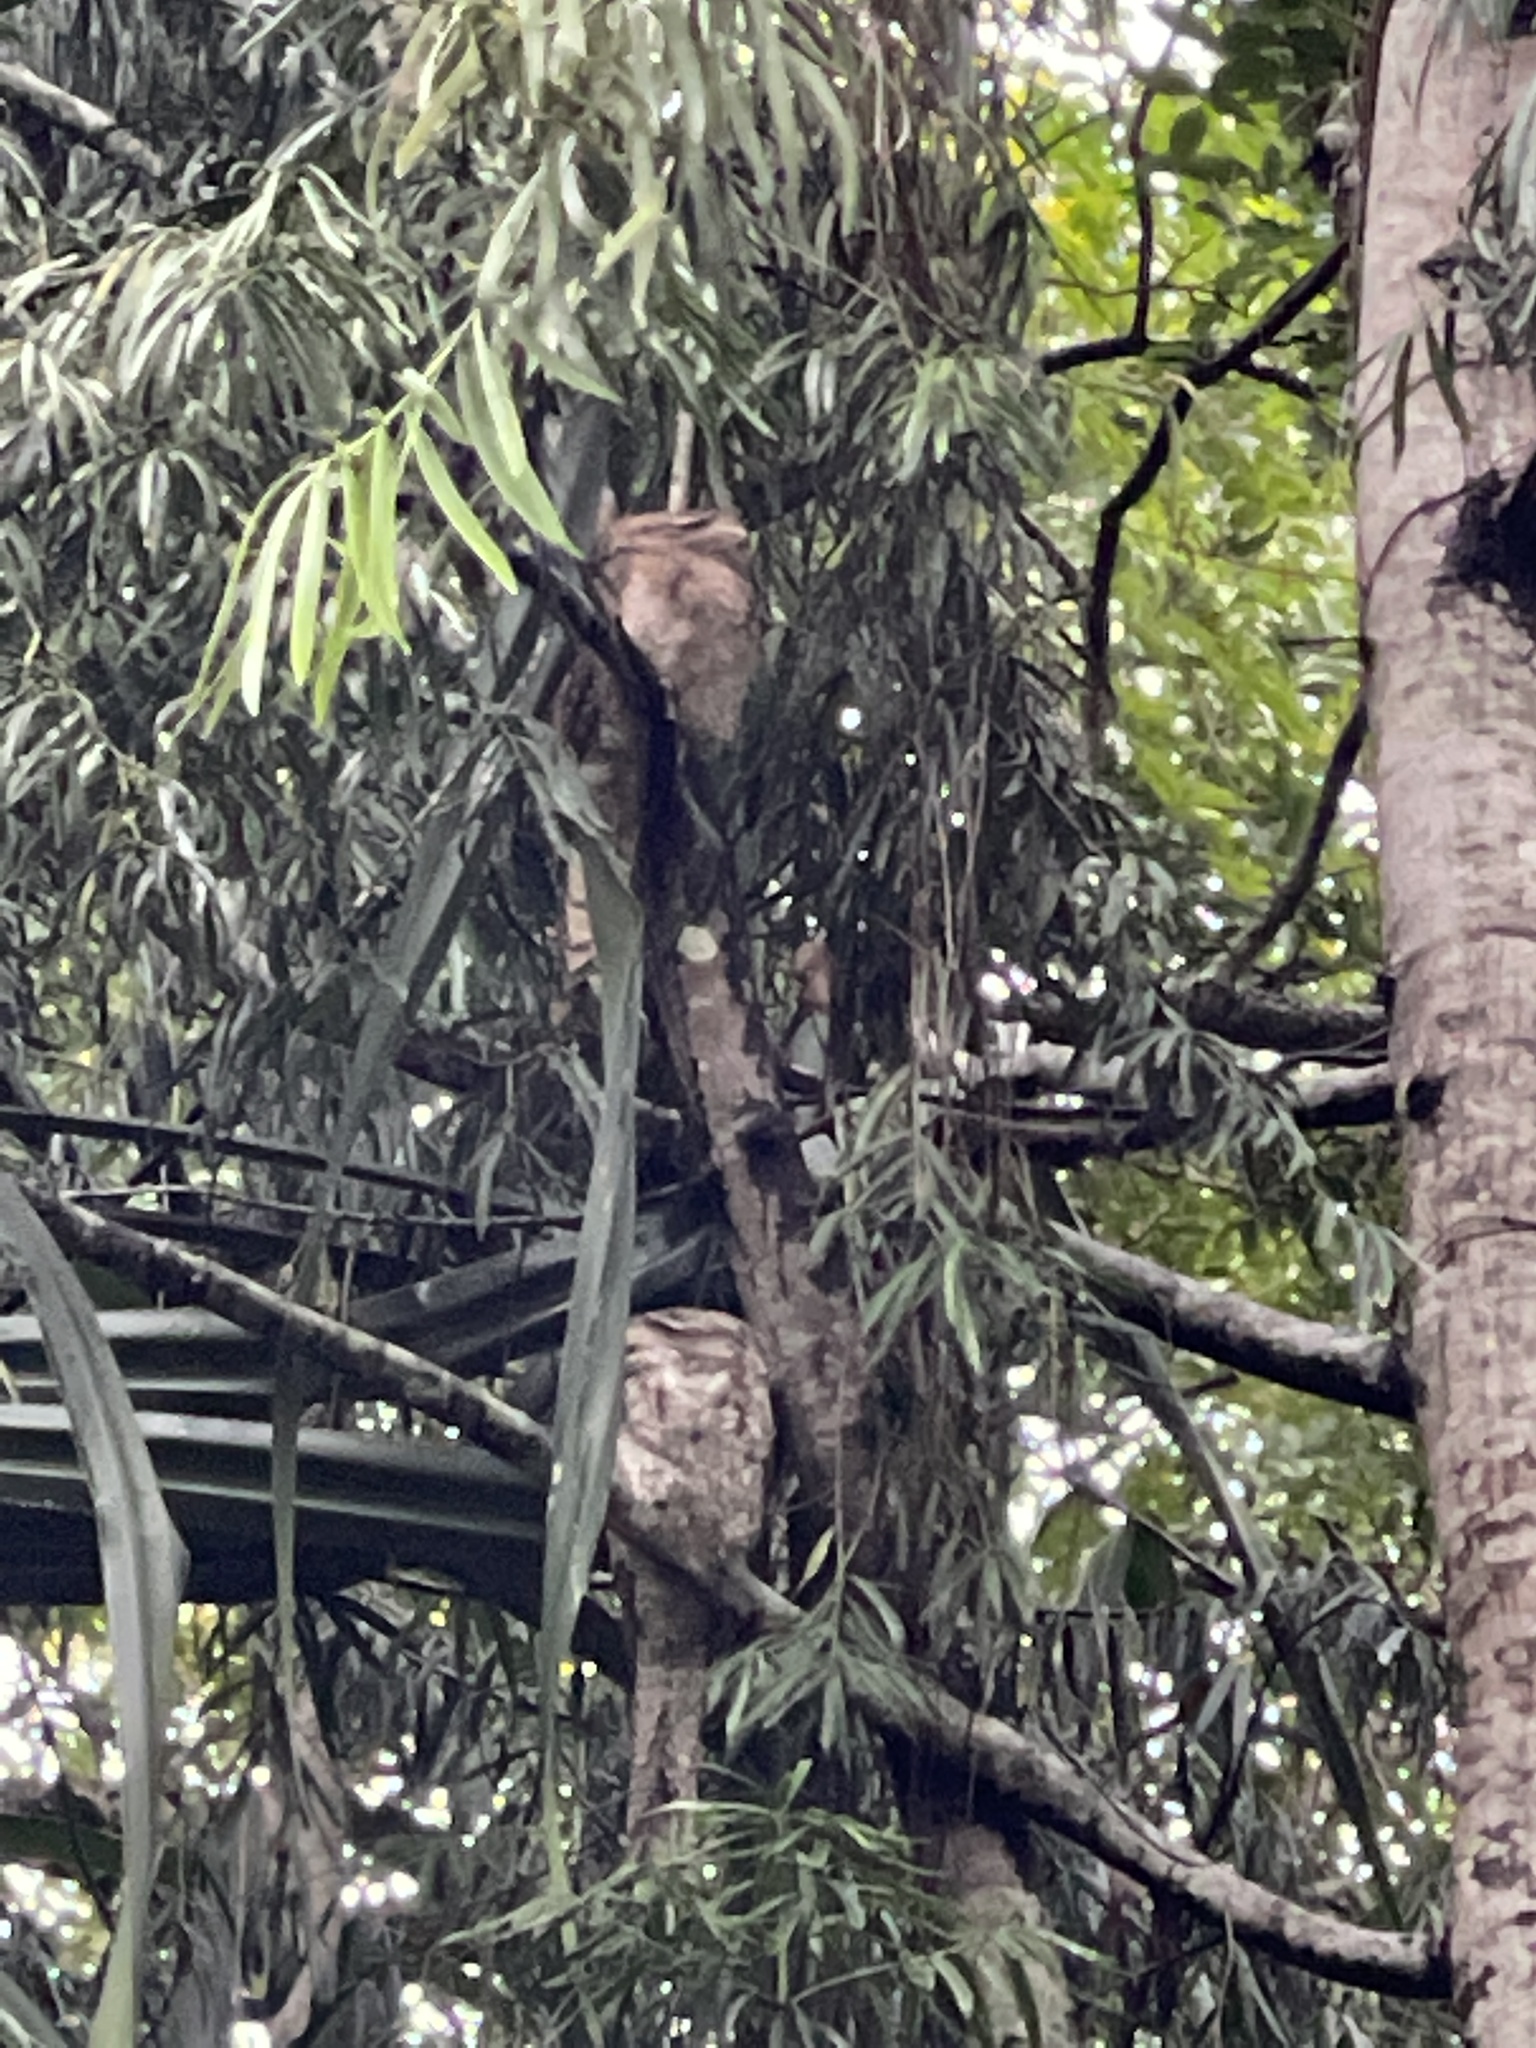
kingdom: Animalia
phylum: Chordata
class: Aves
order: Caprimulgiformes
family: Podargidae
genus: Podargus
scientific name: Podargus papuensis
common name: Papuan frogmouth
